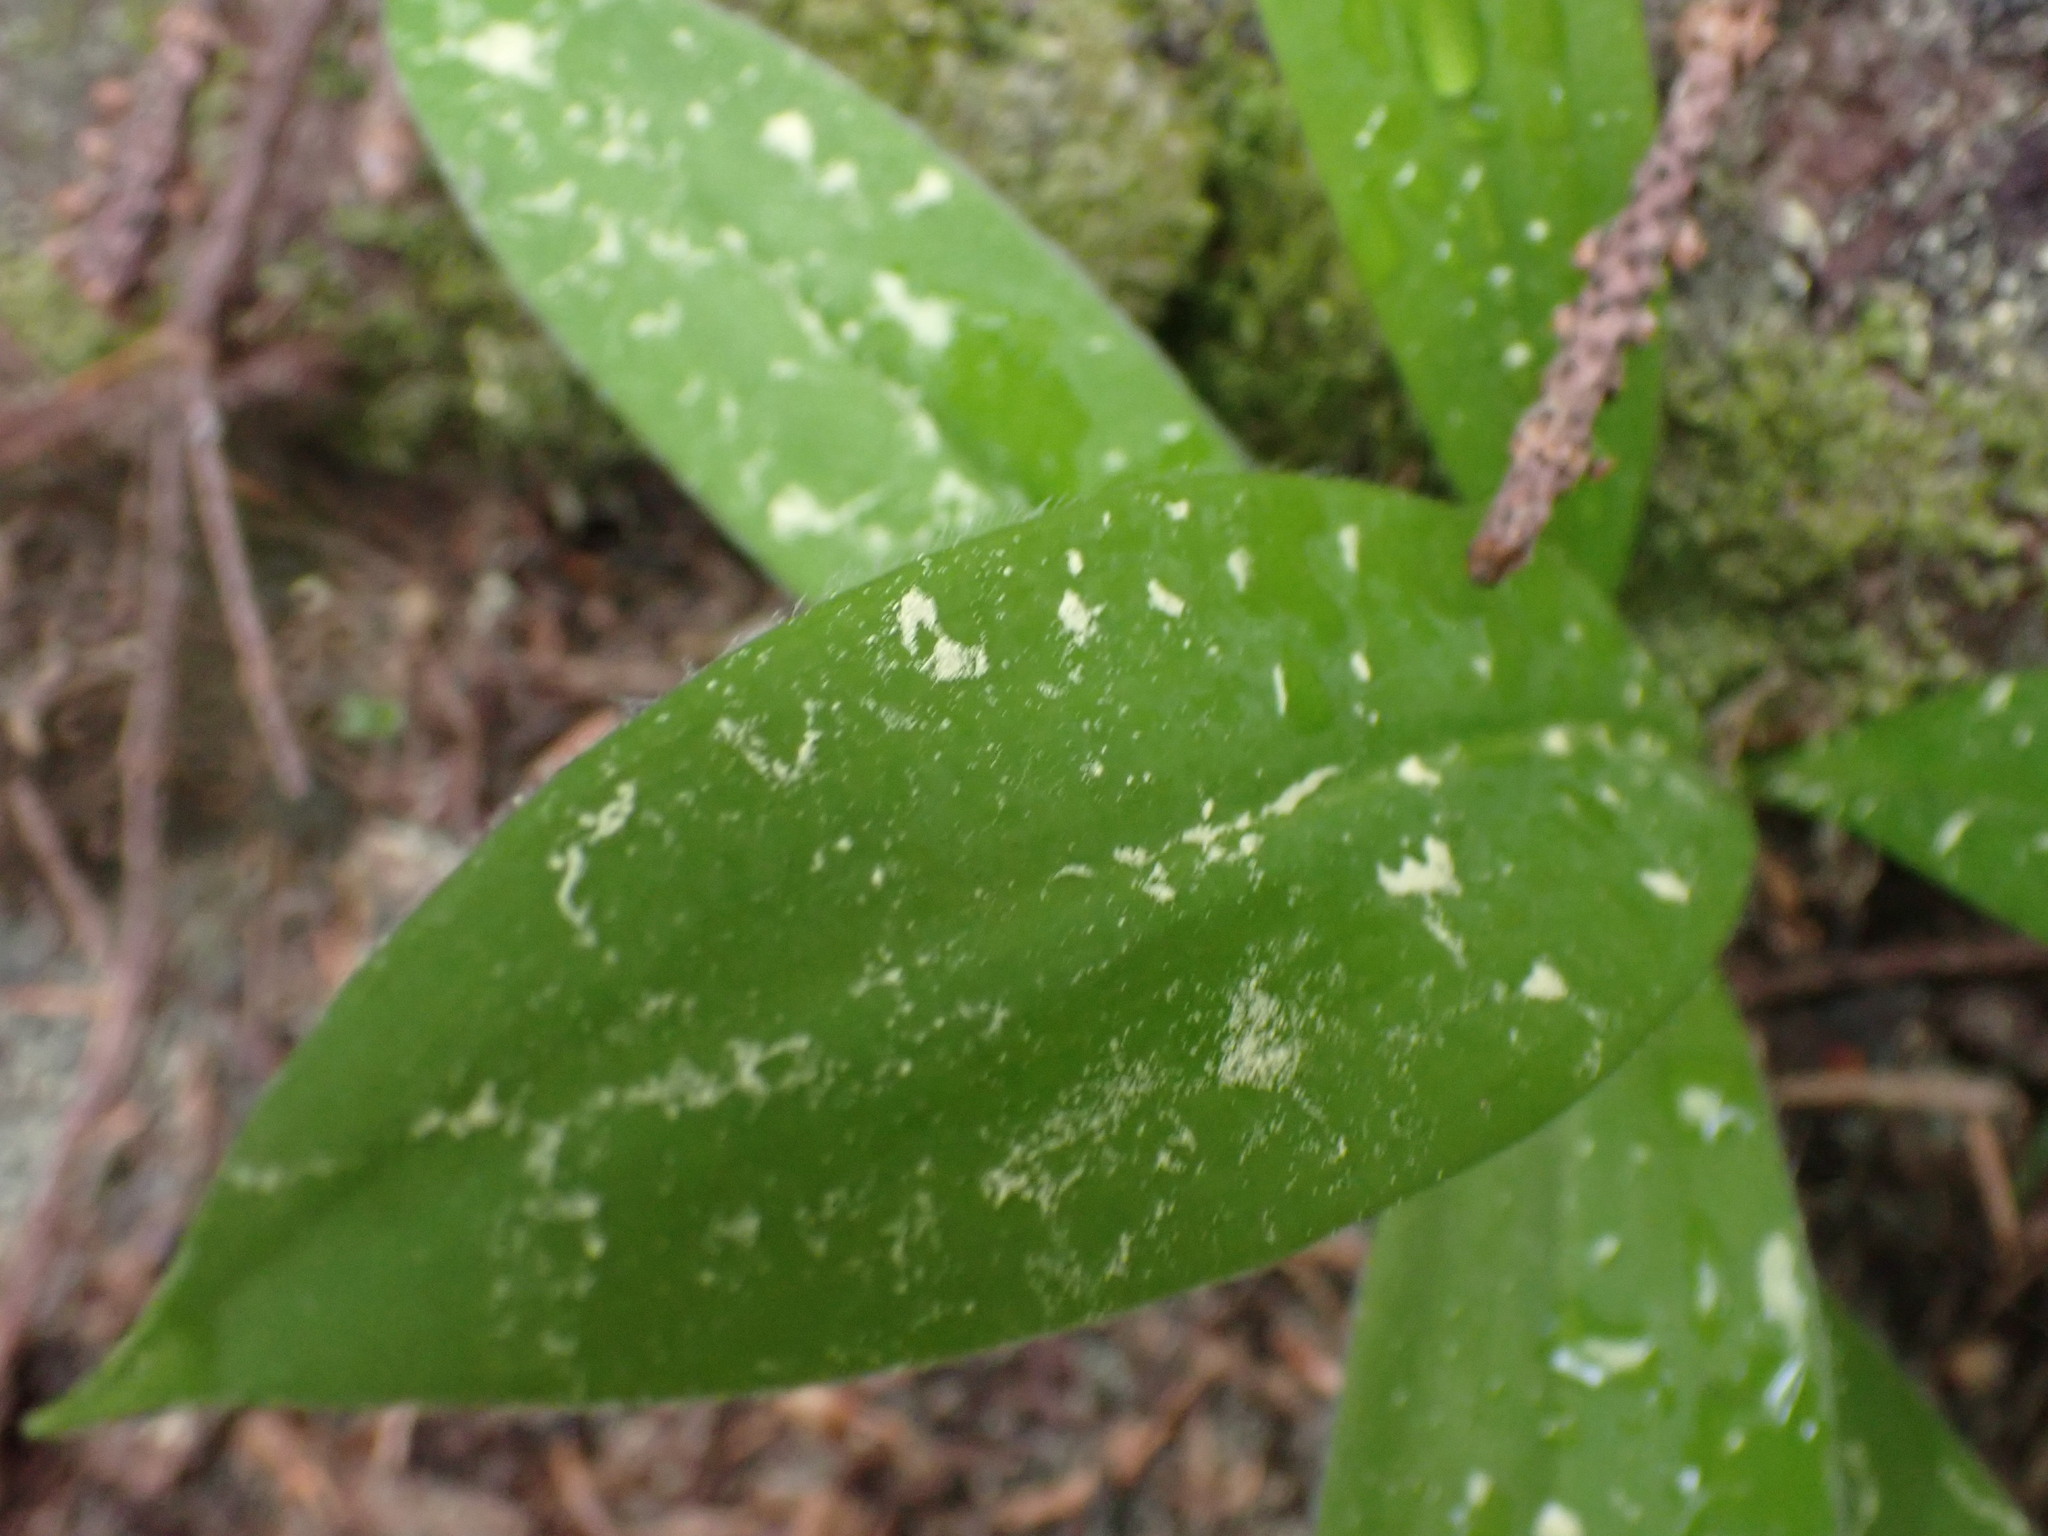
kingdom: Plantae
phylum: Tracheophyta
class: Liliopsida
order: Liliales
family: Liliaceae
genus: Clintonia
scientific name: Clintonia uniflora
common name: Queen's cup
